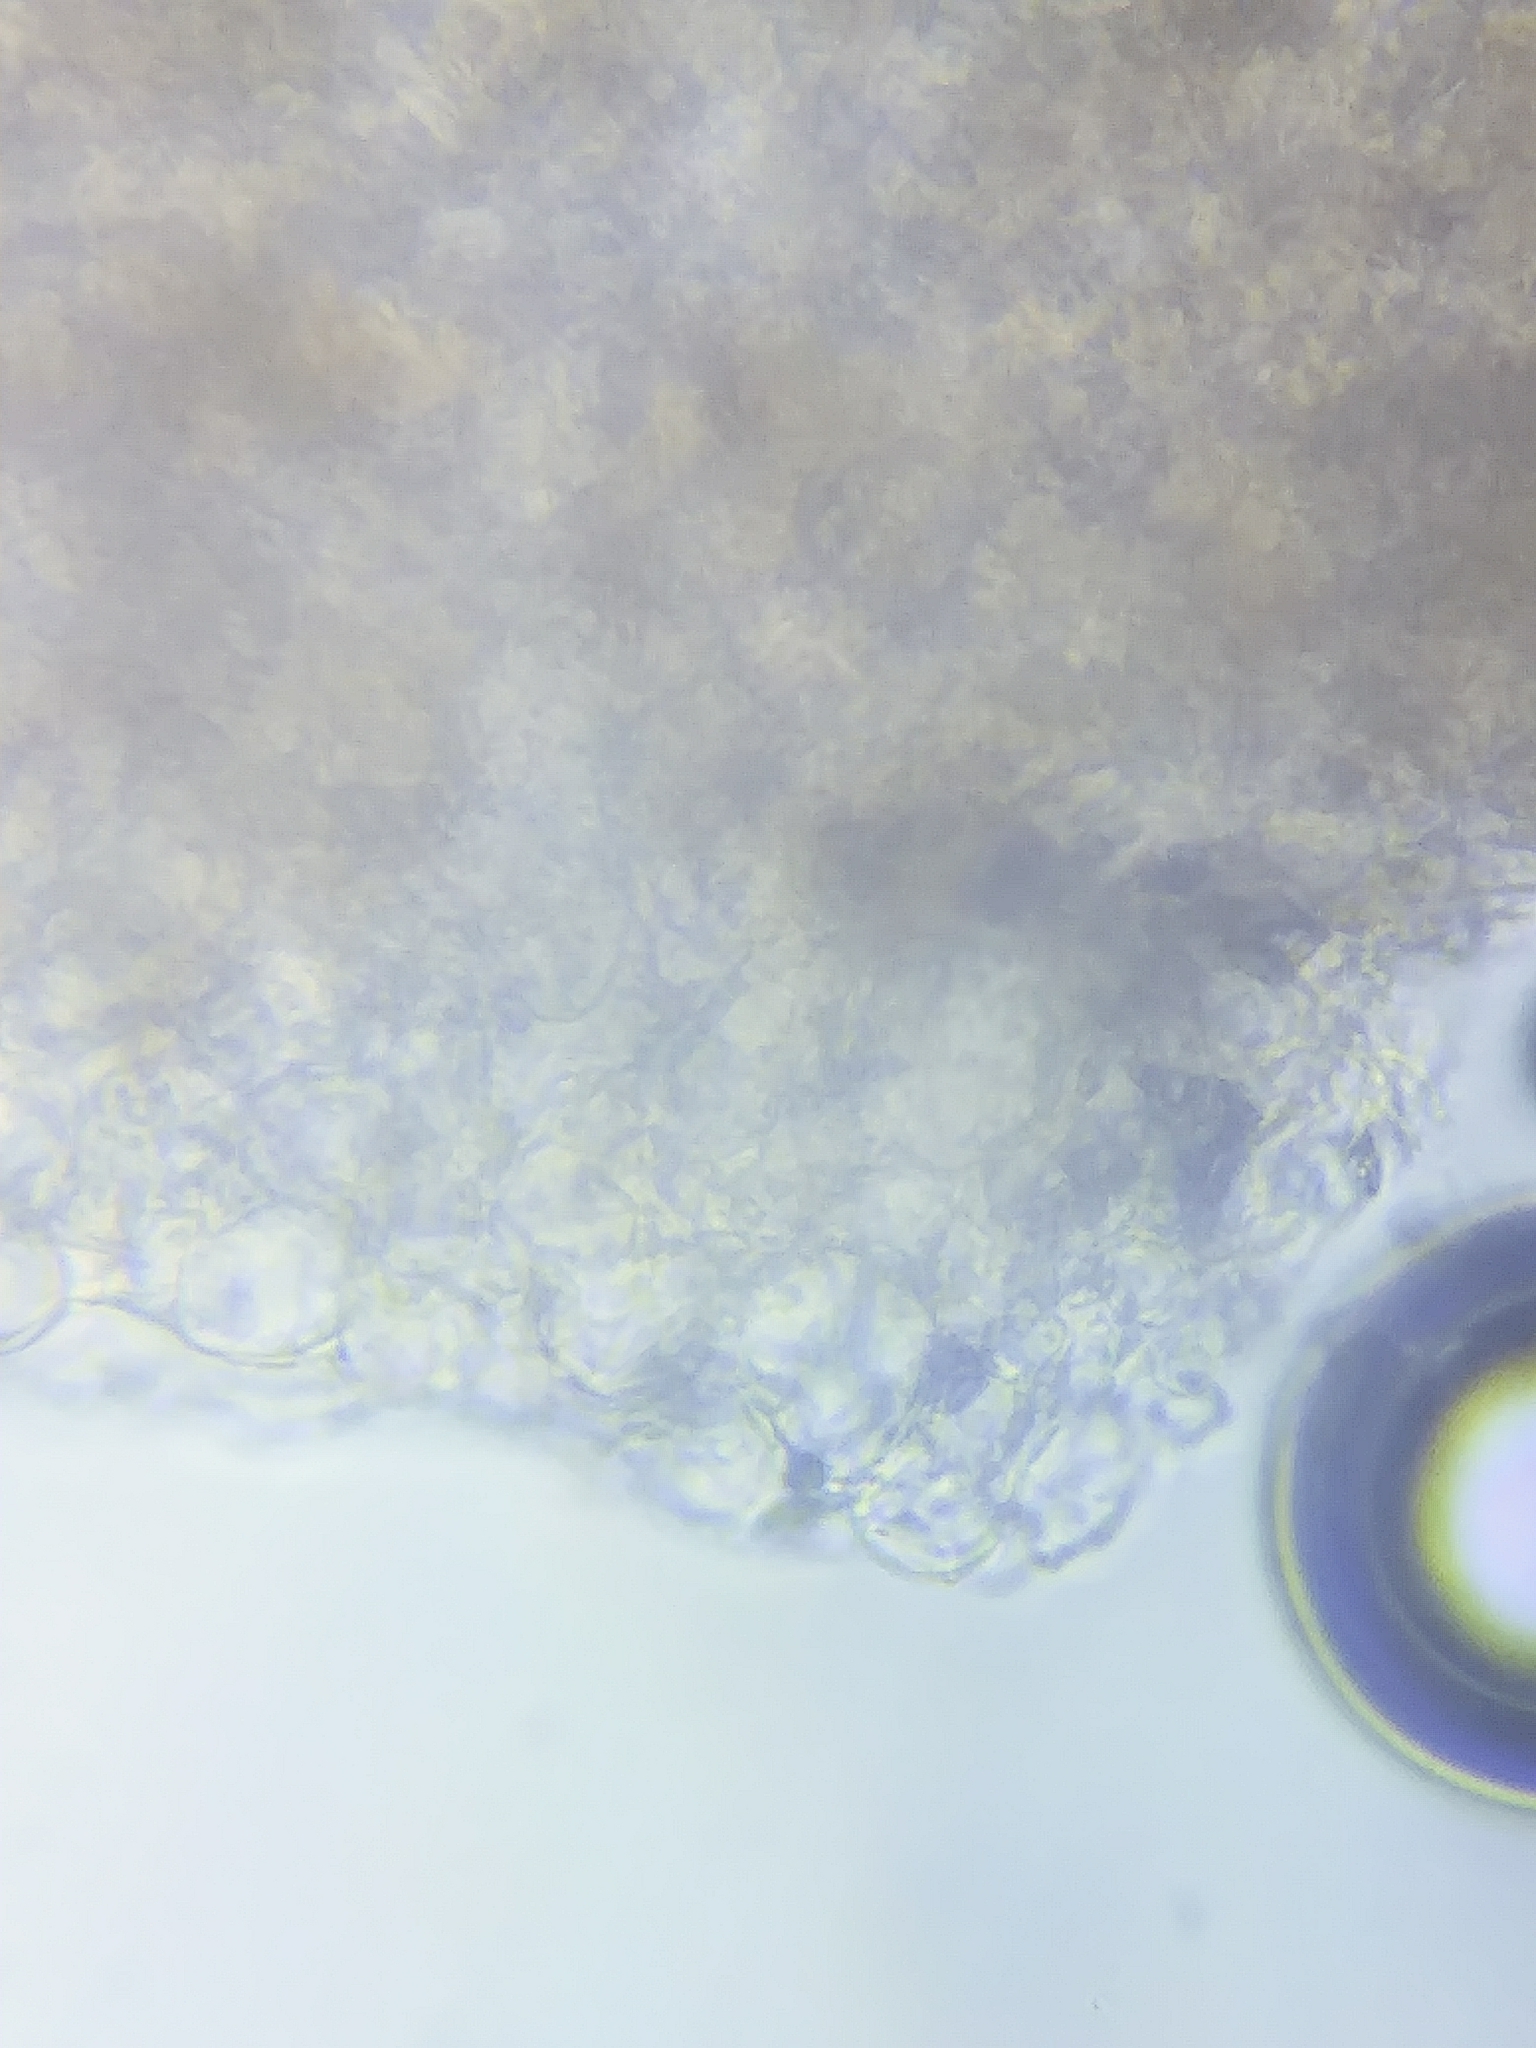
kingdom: Fungi
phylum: Basidiomycota
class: Agaricomycetes
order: Agaricales
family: Marasmiaceae
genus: Marasmius
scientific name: Marasmius rotula
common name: Collared parachute
